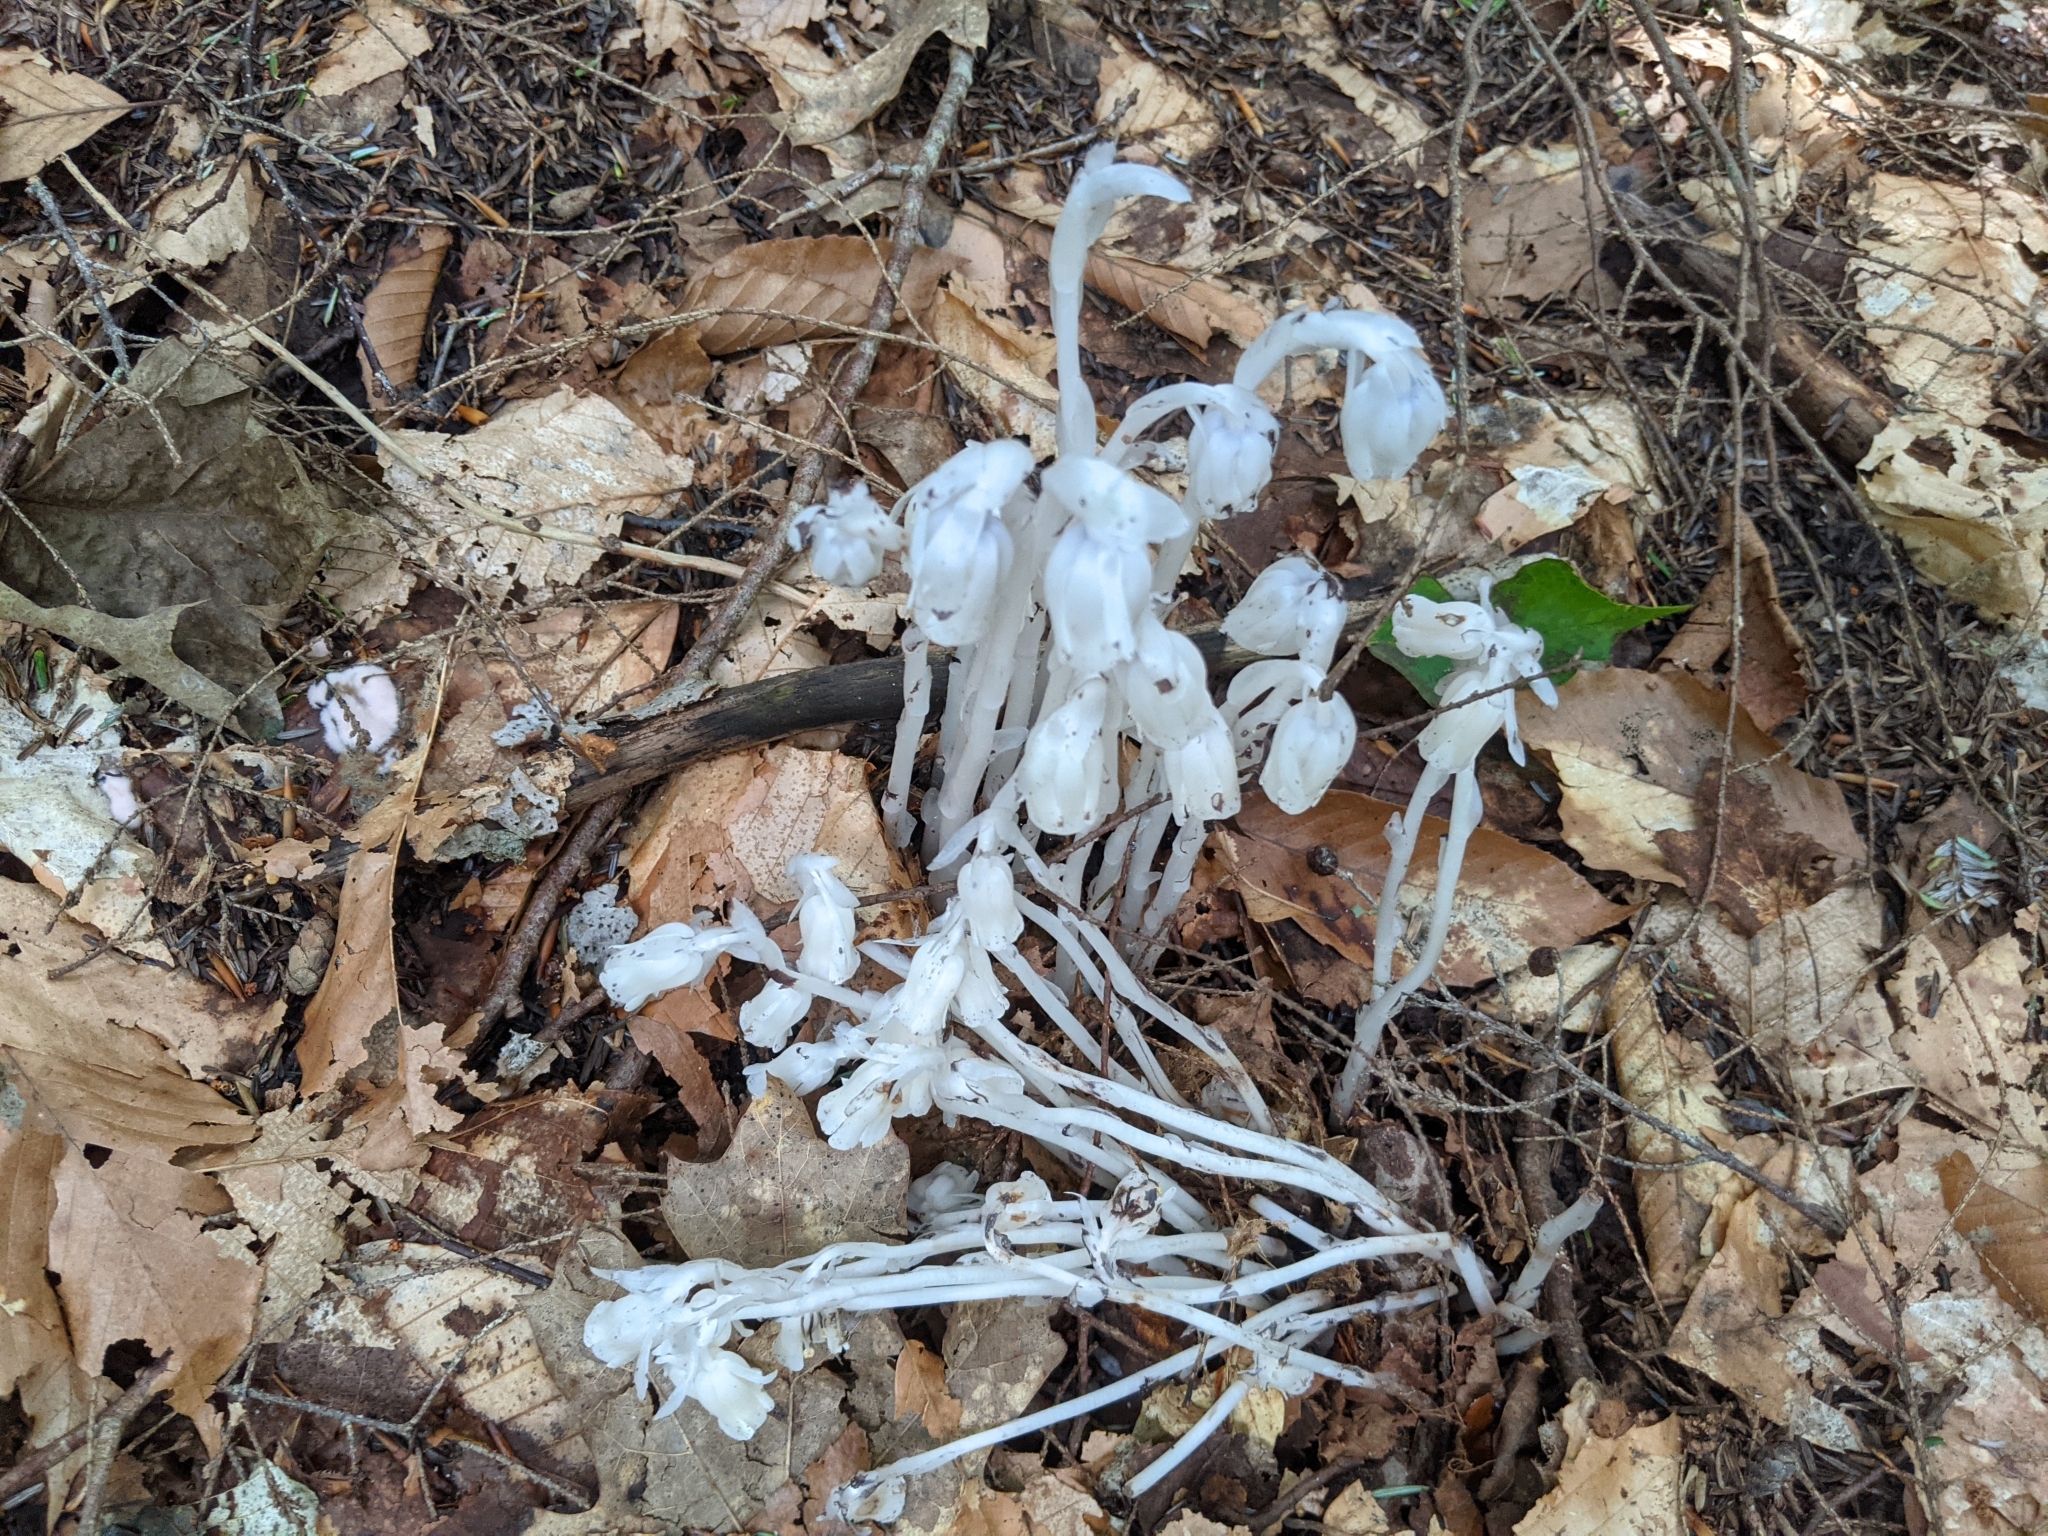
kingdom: Plantae
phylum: Tracheophyta
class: Magnoliopsida
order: Ericales
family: Ericaceae
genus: Monotropa
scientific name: Monotropa uniflora
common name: Convulsion root
